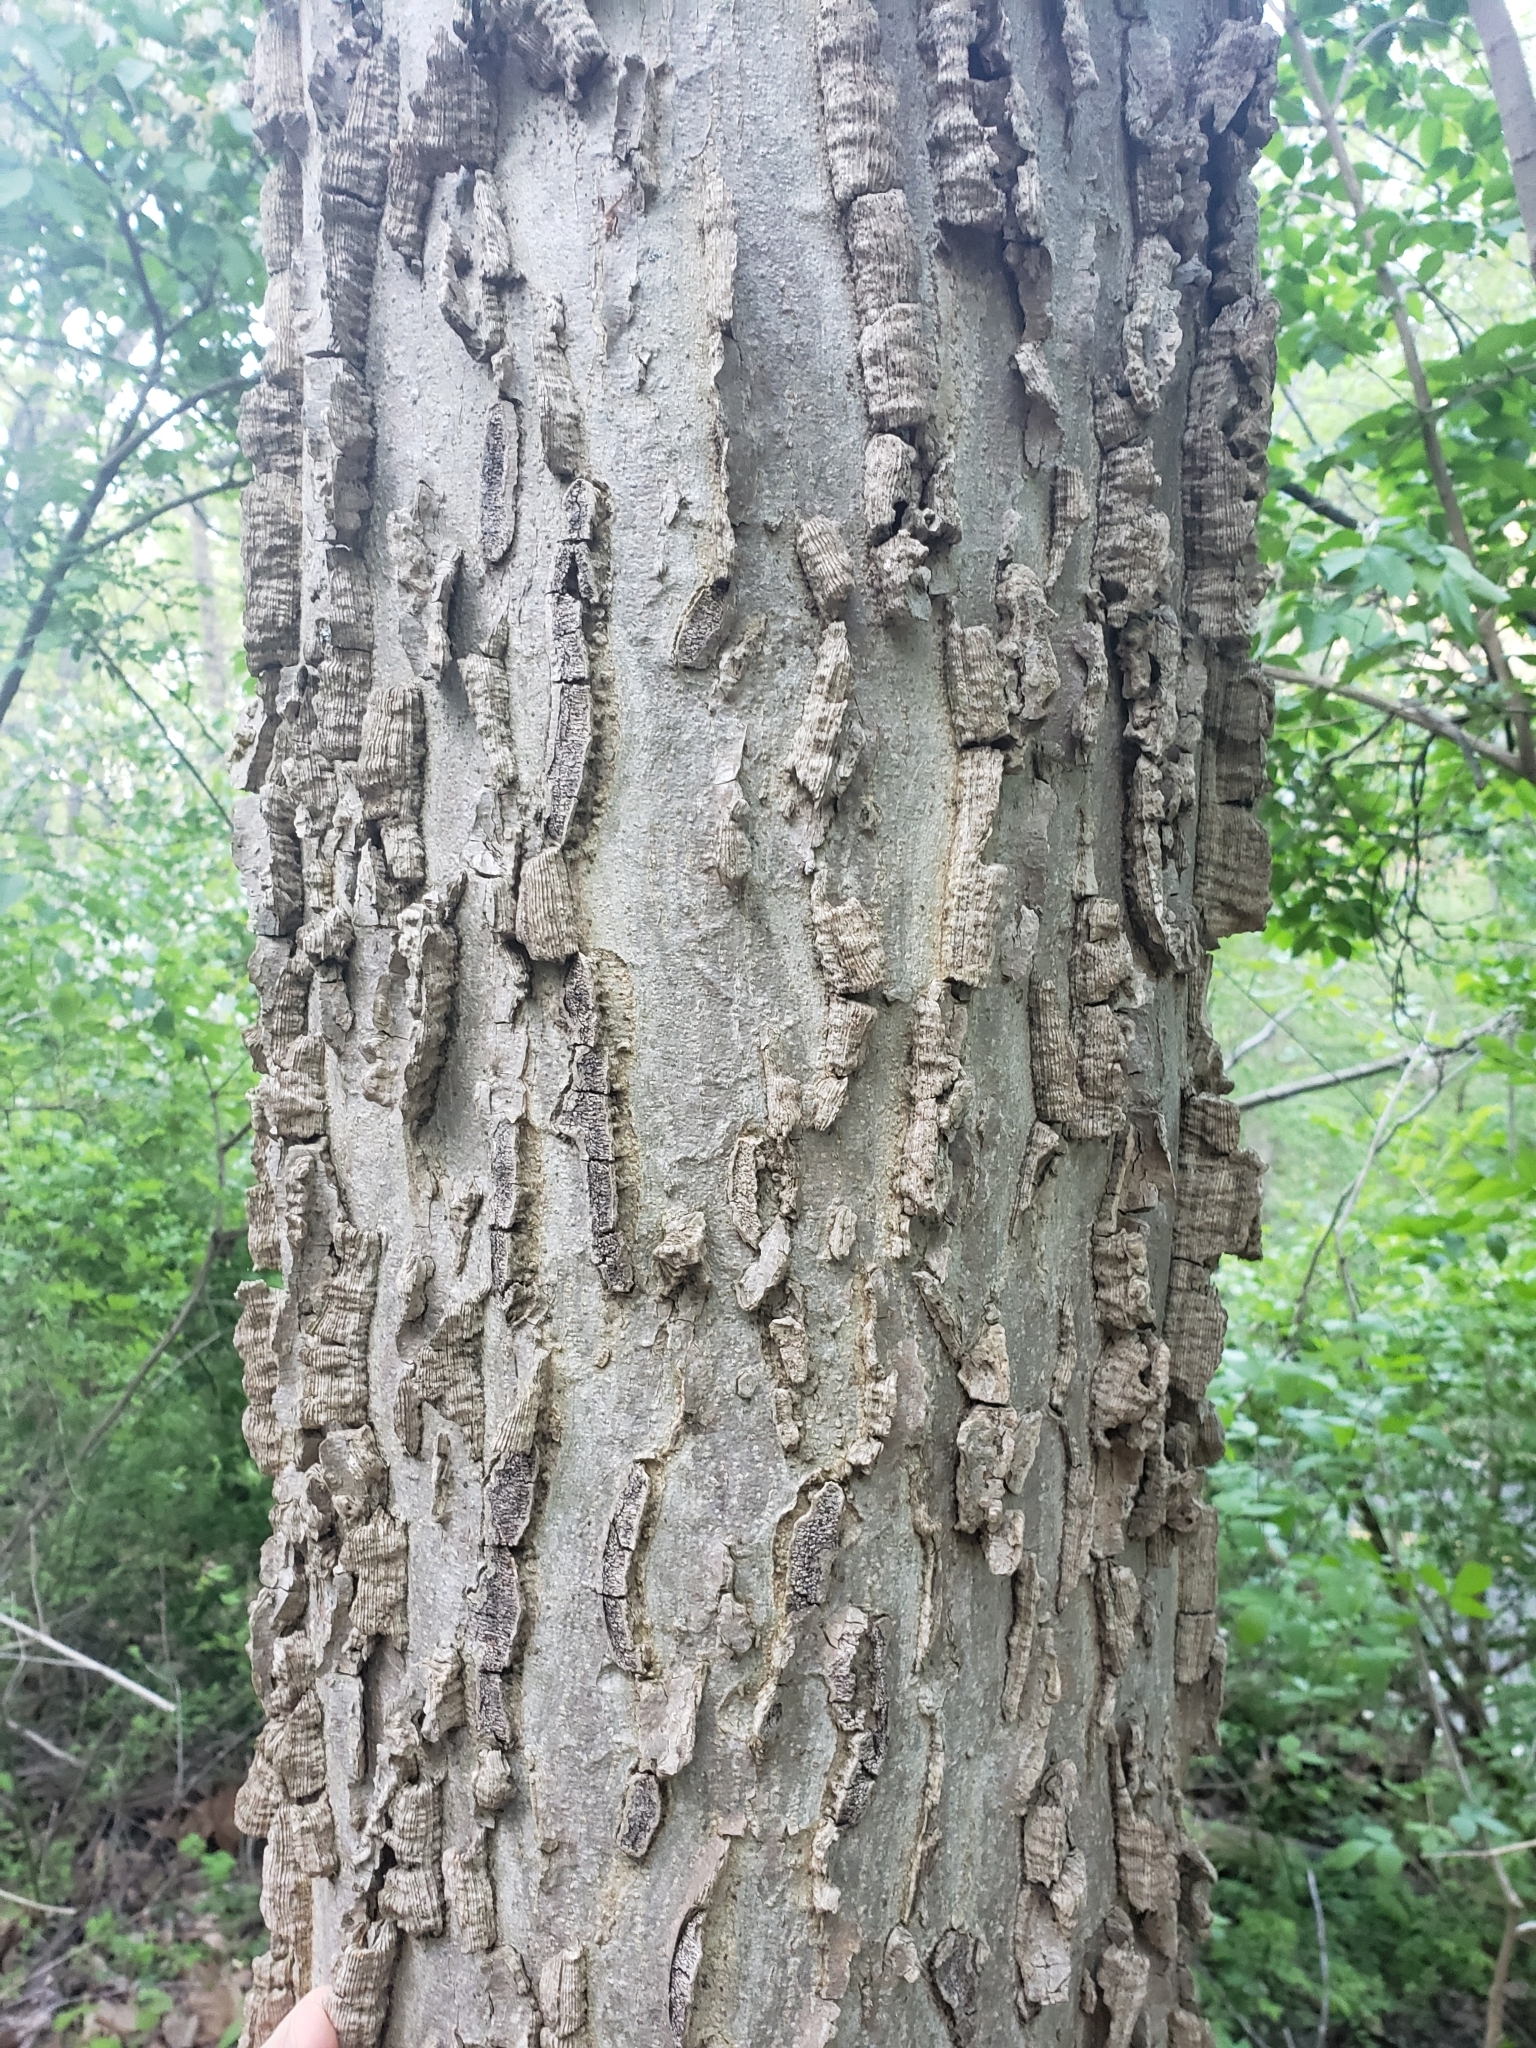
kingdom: Plantae
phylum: Tracheophyta
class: Magnoliopsida
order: Rosales
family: Cannabaceae
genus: Celtis
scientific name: Celtis occidentalis
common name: Common hackberry
